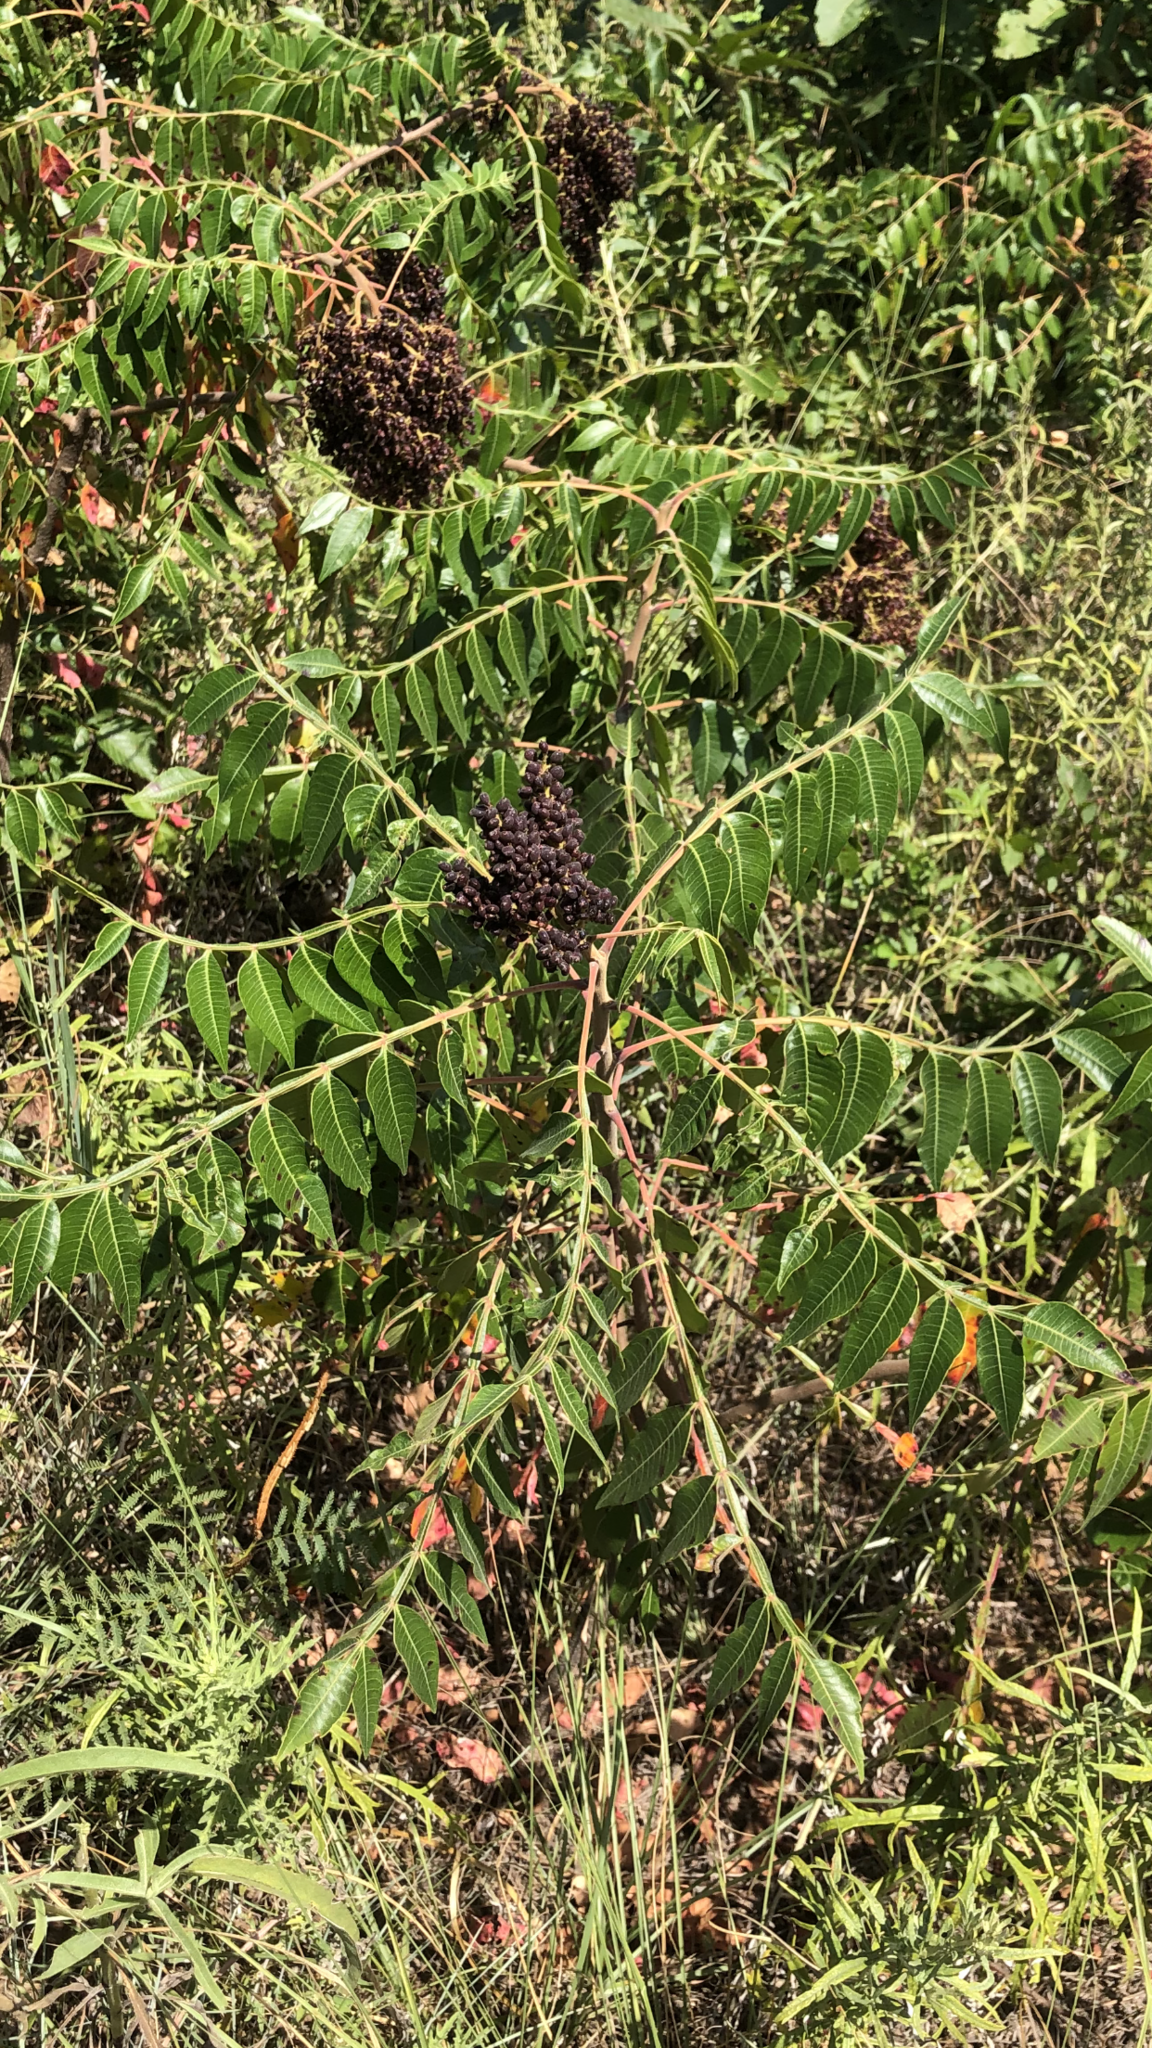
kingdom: Plantae
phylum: Tracheophyta
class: Magnoliopsida
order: Sapindales
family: Anacardiaceae
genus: Rhus
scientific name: Rhus copallina
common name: Shining sumac
